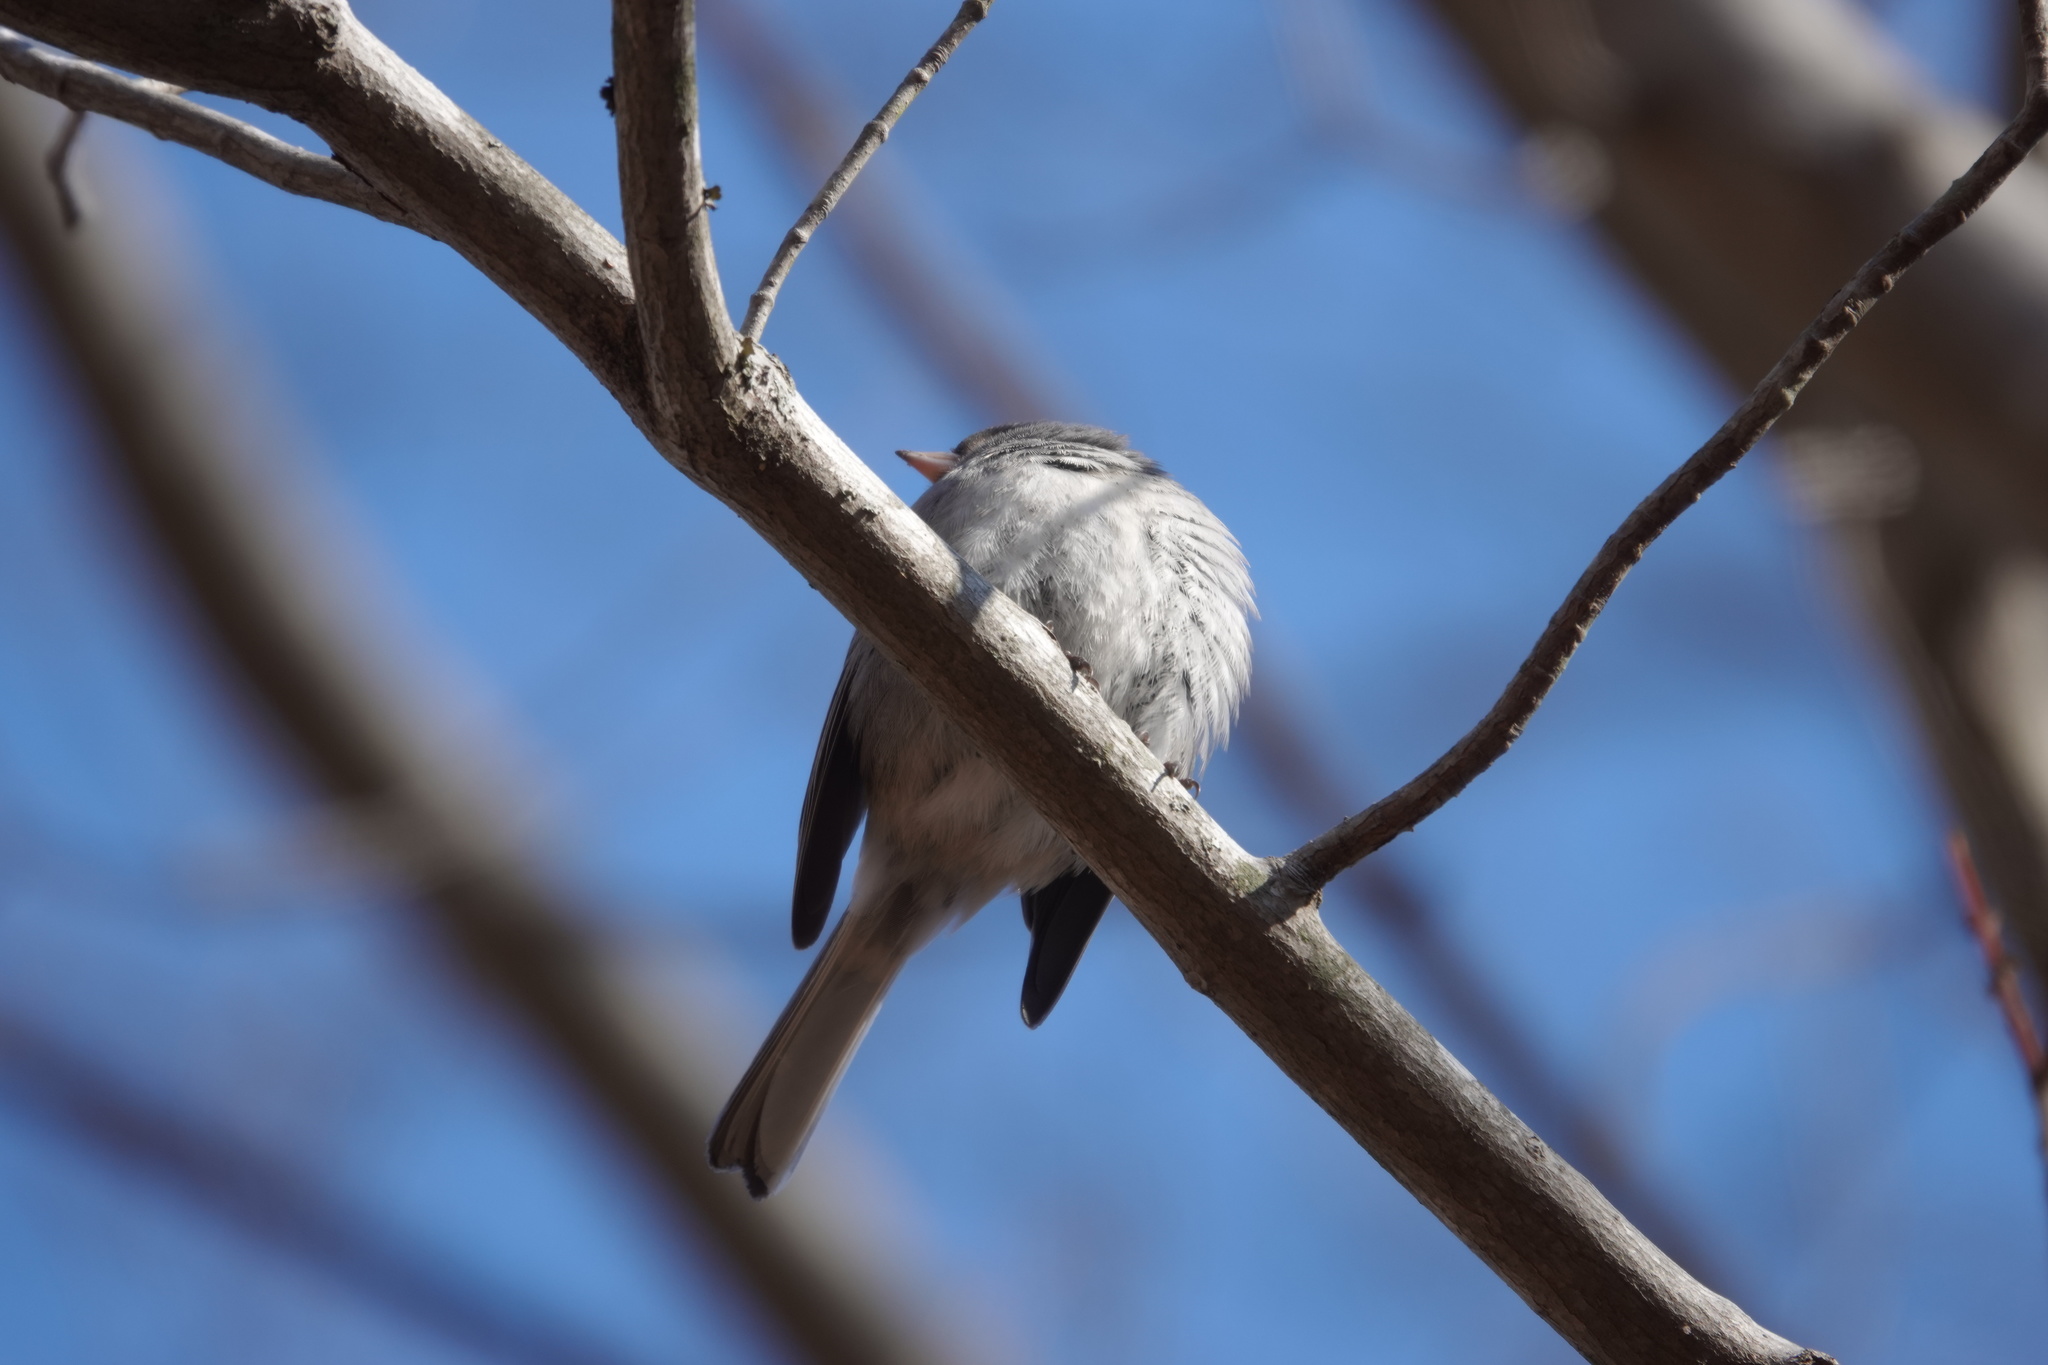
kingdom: Animalia
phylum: Chordata
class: Aves
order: Passeriformes
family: Passerellidae
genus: Junco
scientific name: Junco hyemalis
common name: Dark-eyed junco
